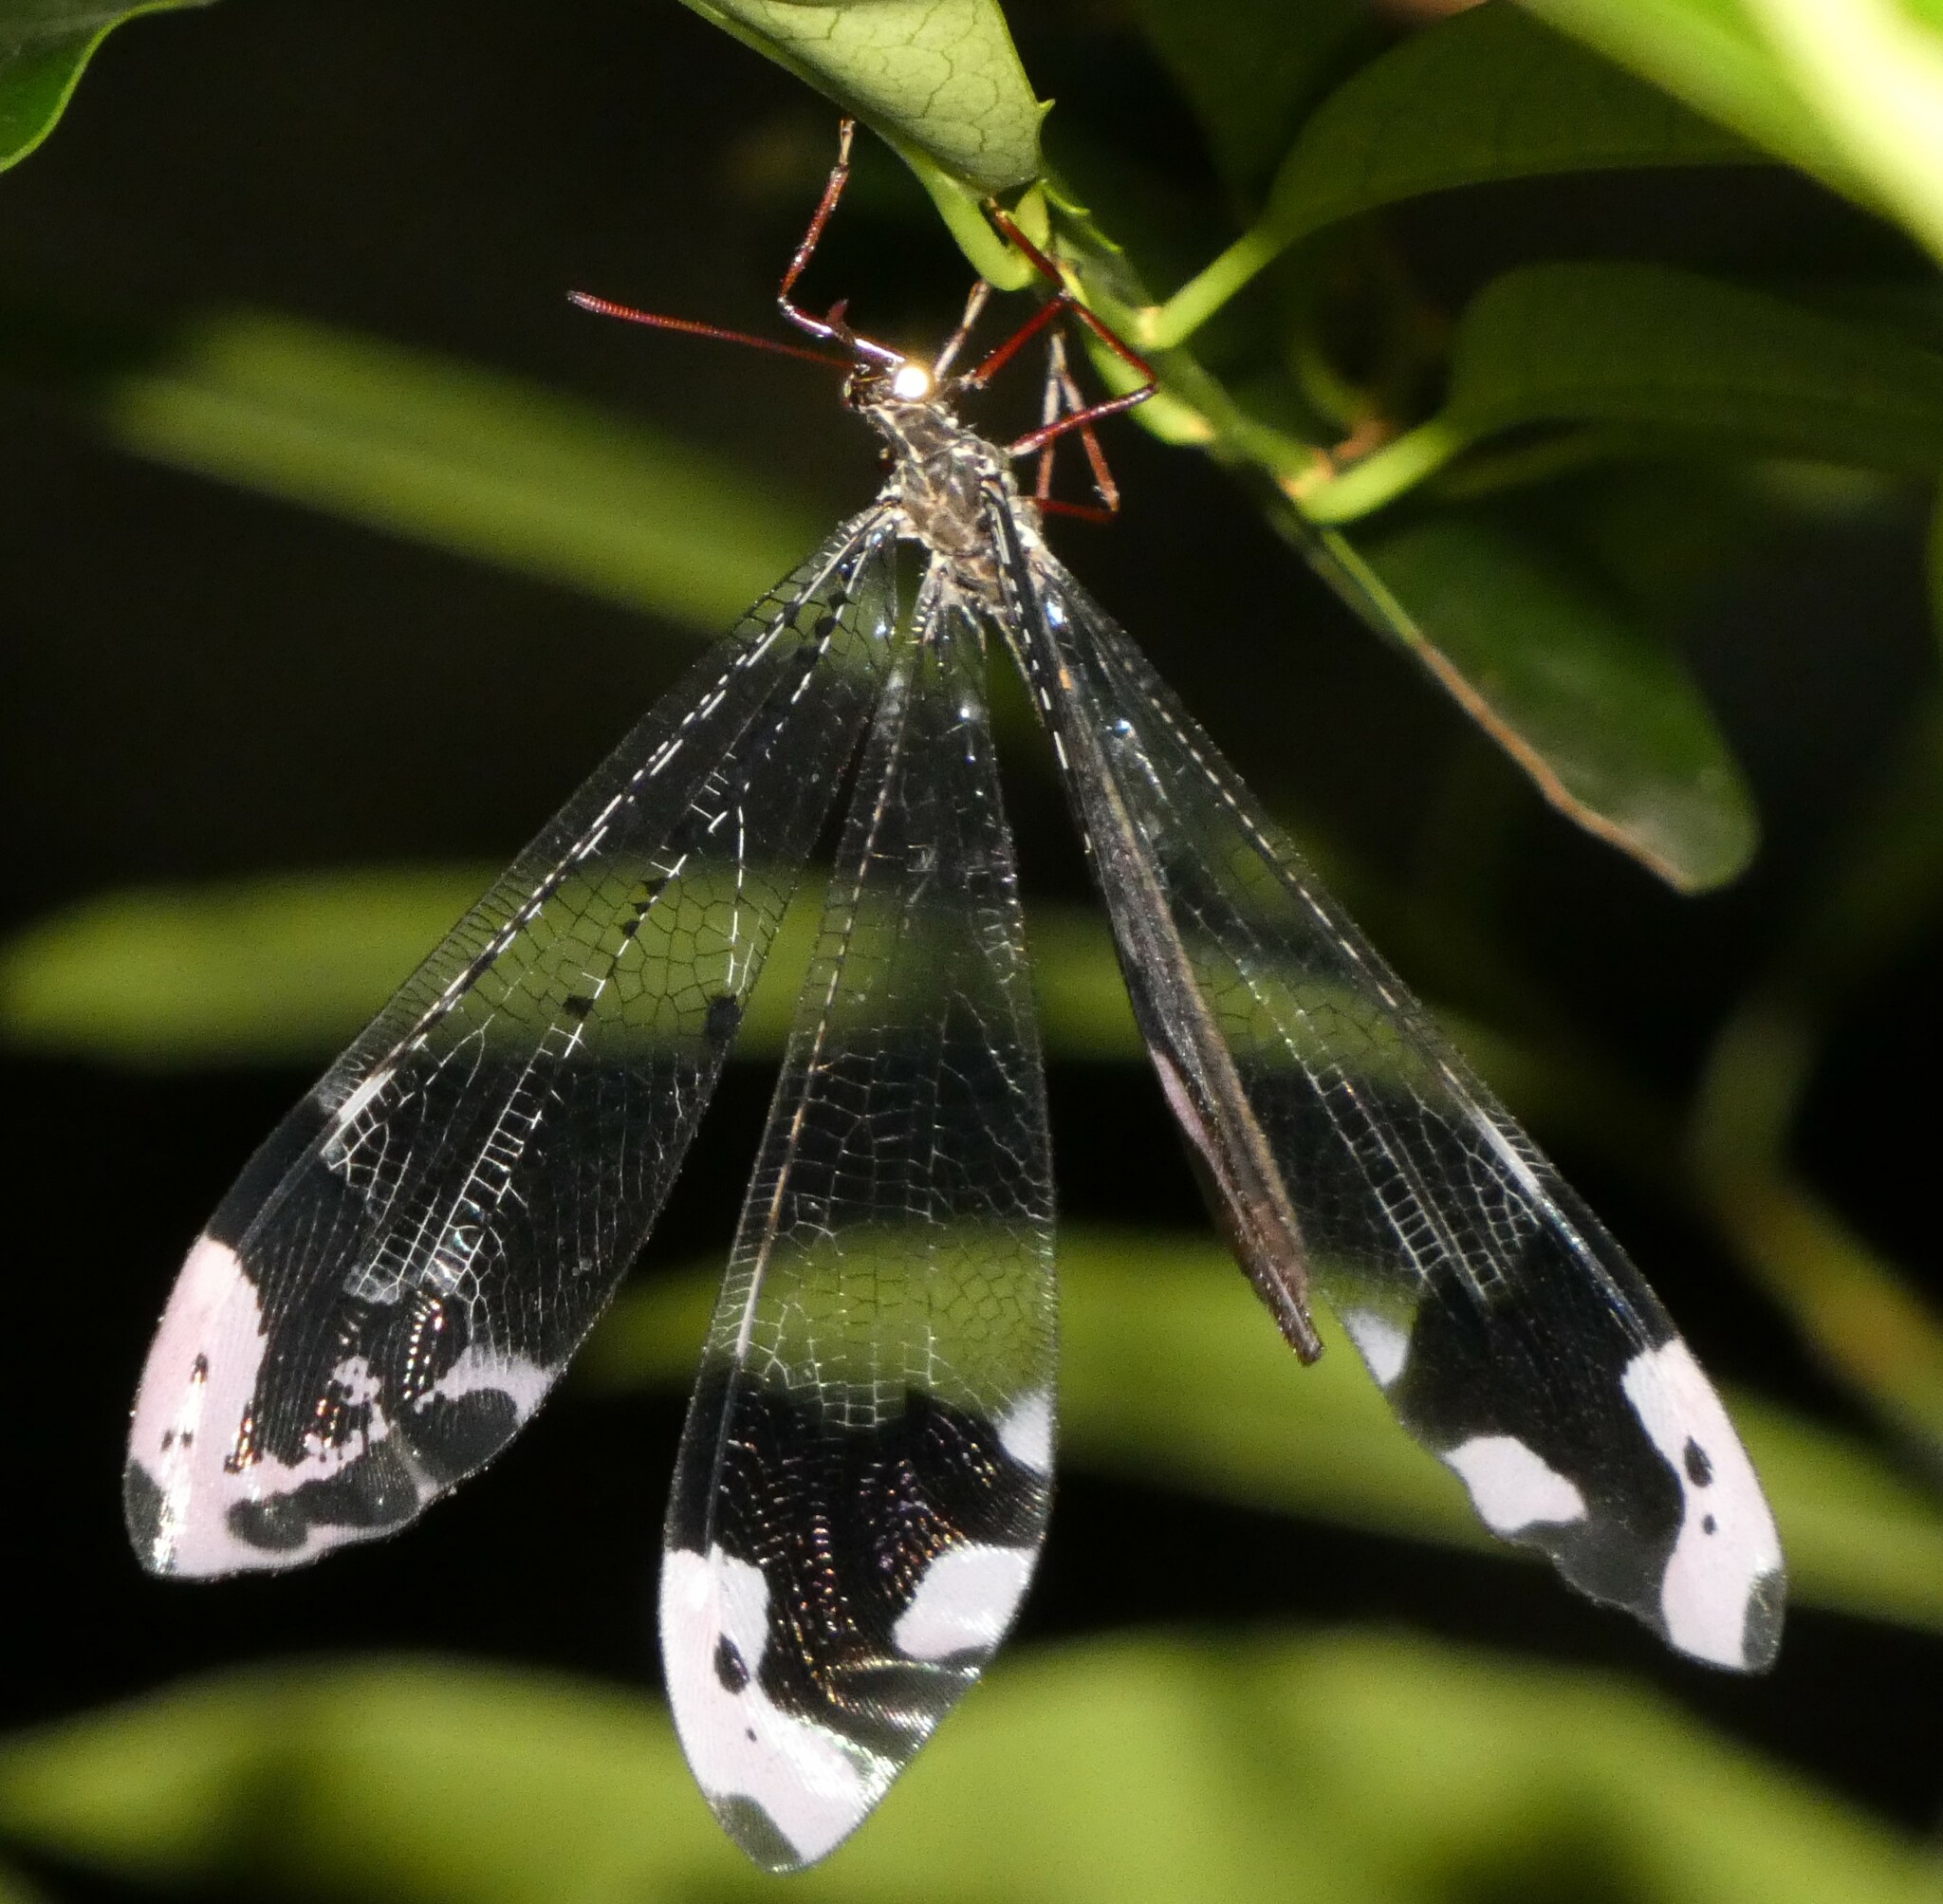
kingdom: Animalia
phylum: Arthropoda
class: Insecta
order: Neuroptera
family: Myrmeleontidae
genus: Glenurus
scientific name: Glenurus gratus
